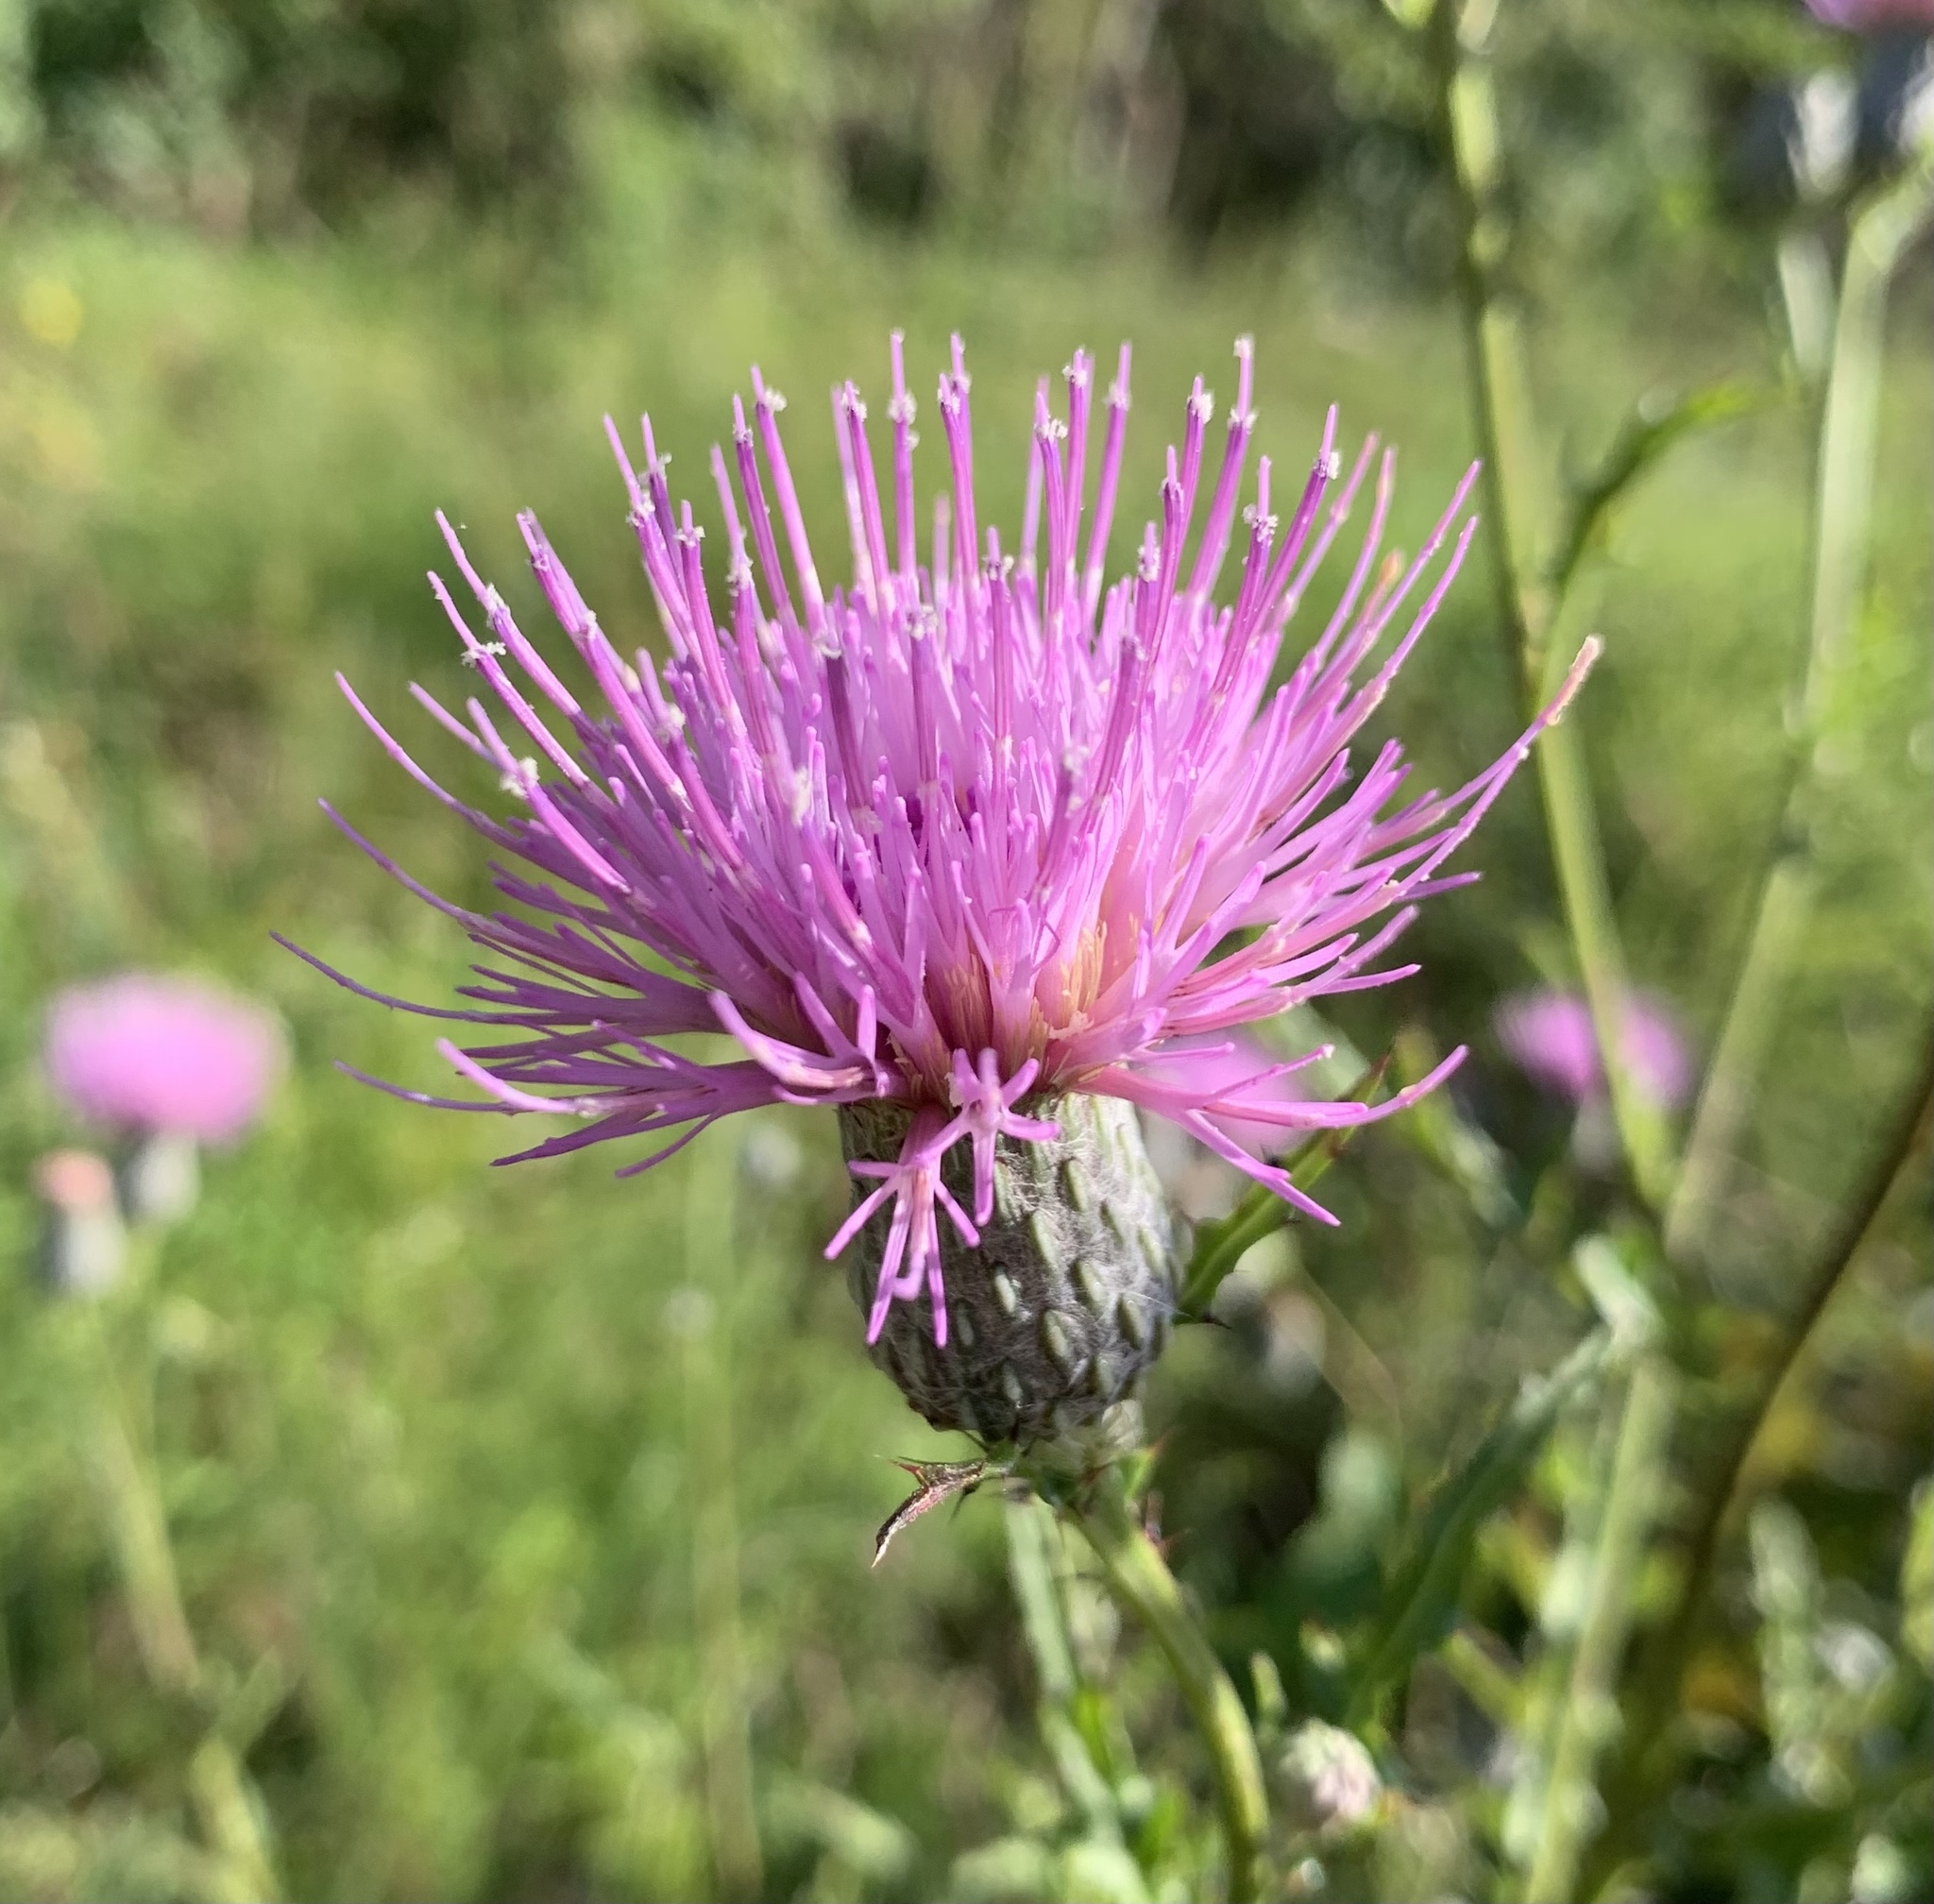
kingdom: Plantae
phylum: Tracheophyta
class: Magnoliopsida
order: Asterales
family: Asteraceae
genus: Cirsium
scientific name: Cirsium muticum
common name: Dunce-nettle
